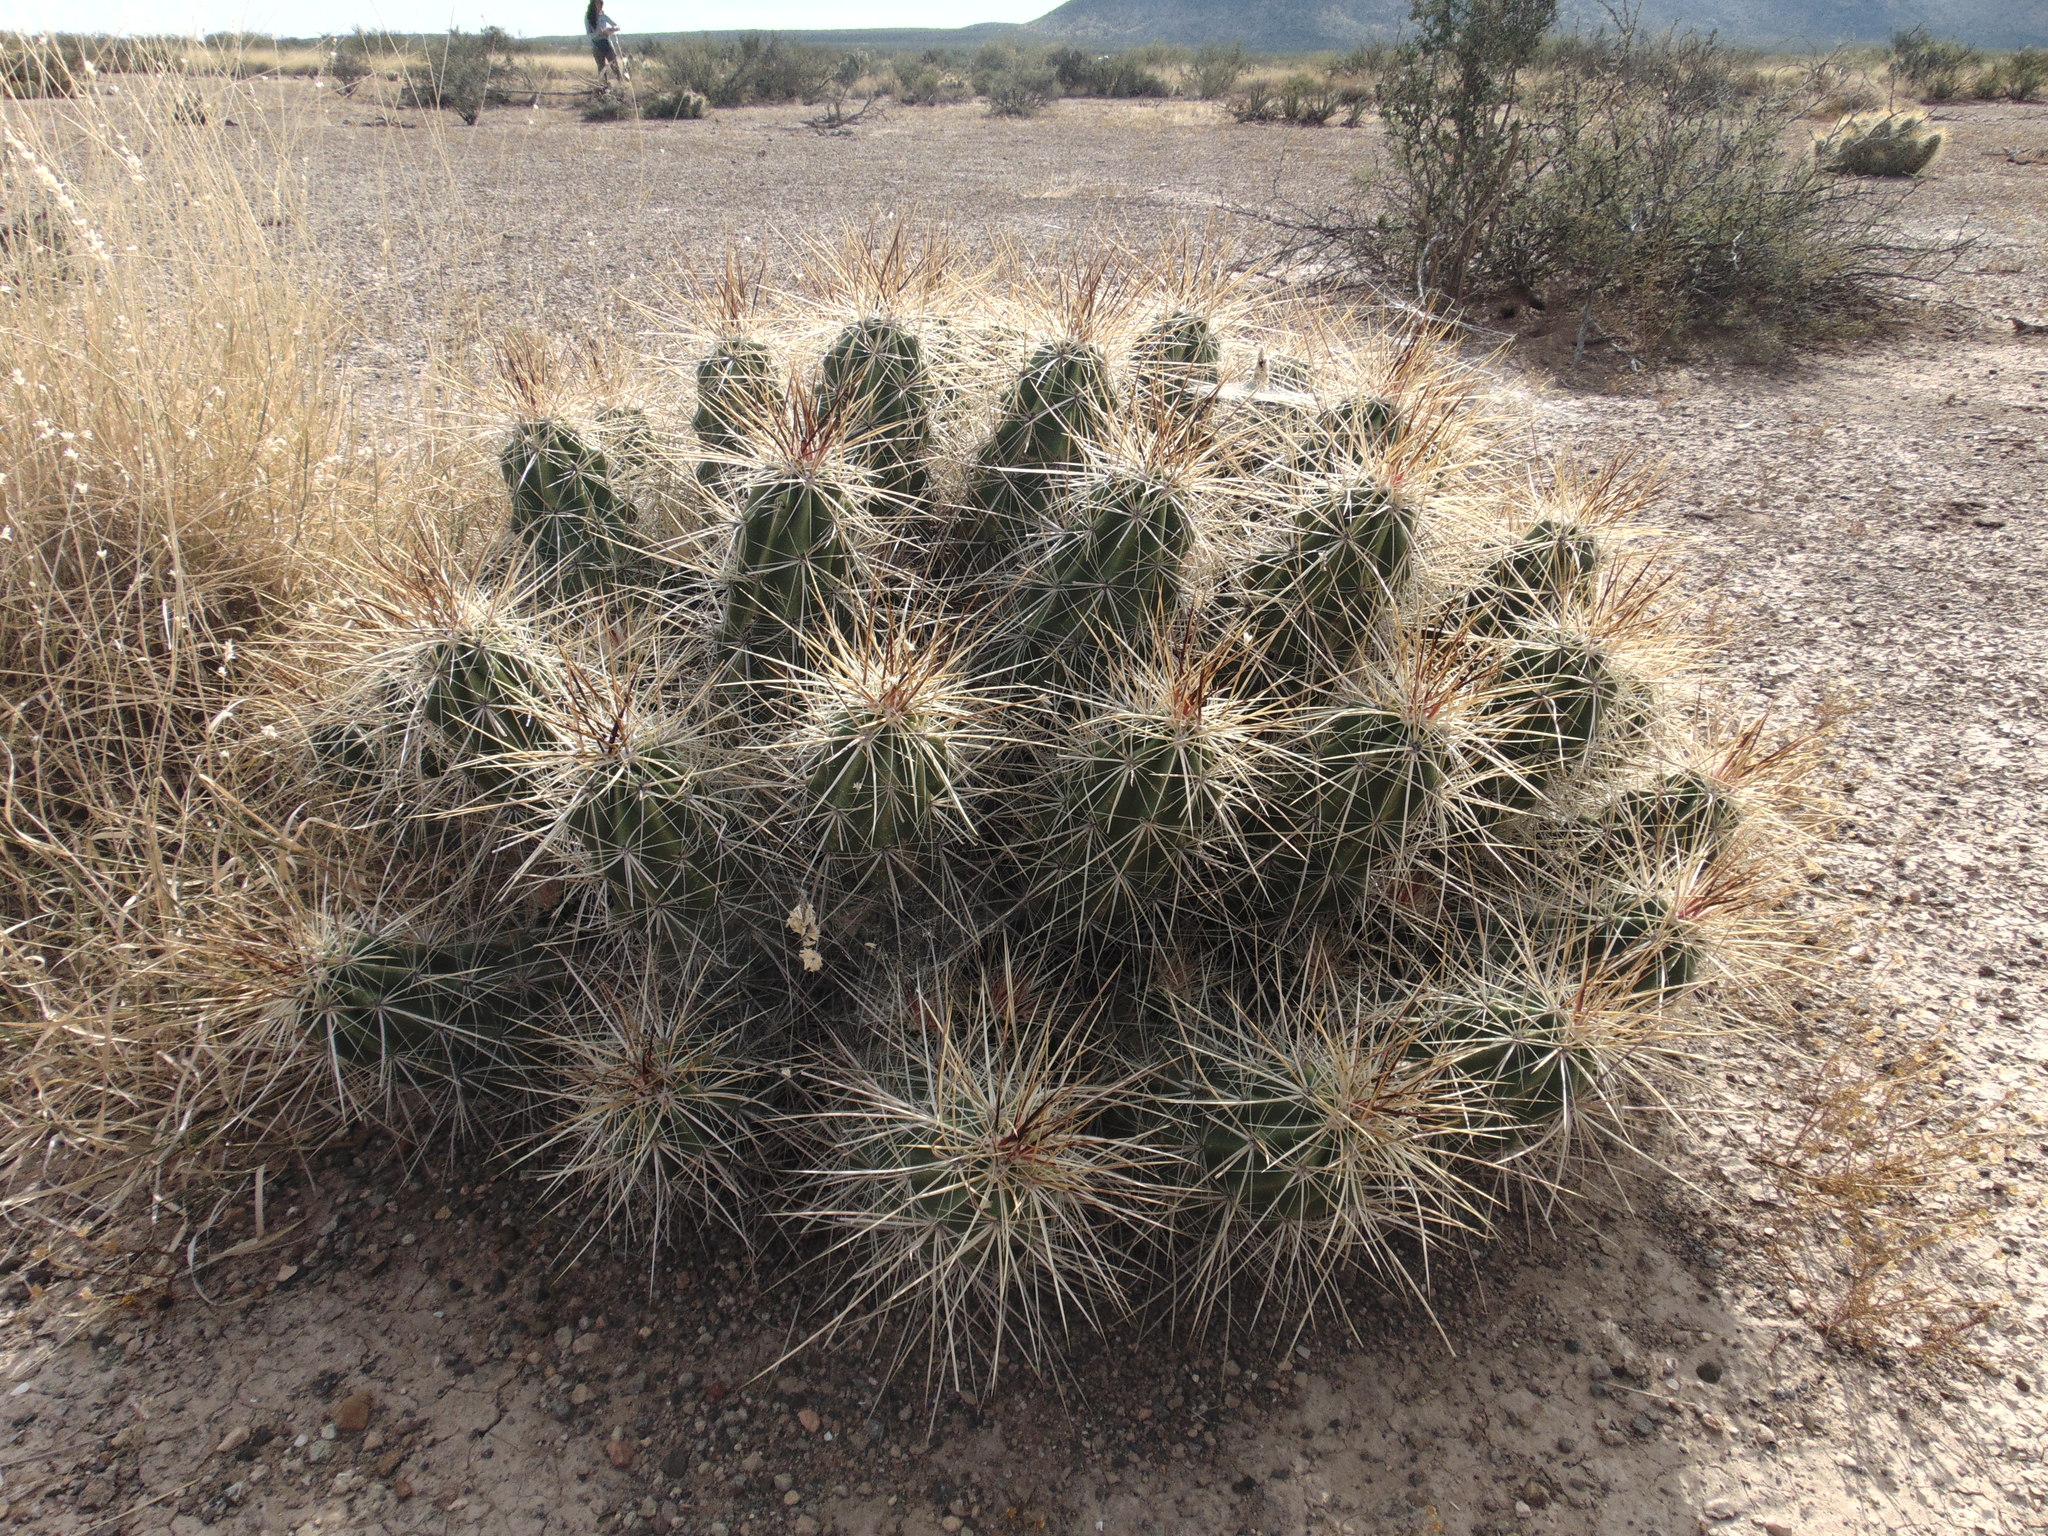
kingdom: Plantae
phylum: Tracheophyta
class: Magnoliopsida
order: Caryophyllales
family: Cactaceae
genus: Echinocereus
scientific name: Echinocereus enneacanthus
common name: Pitaya
